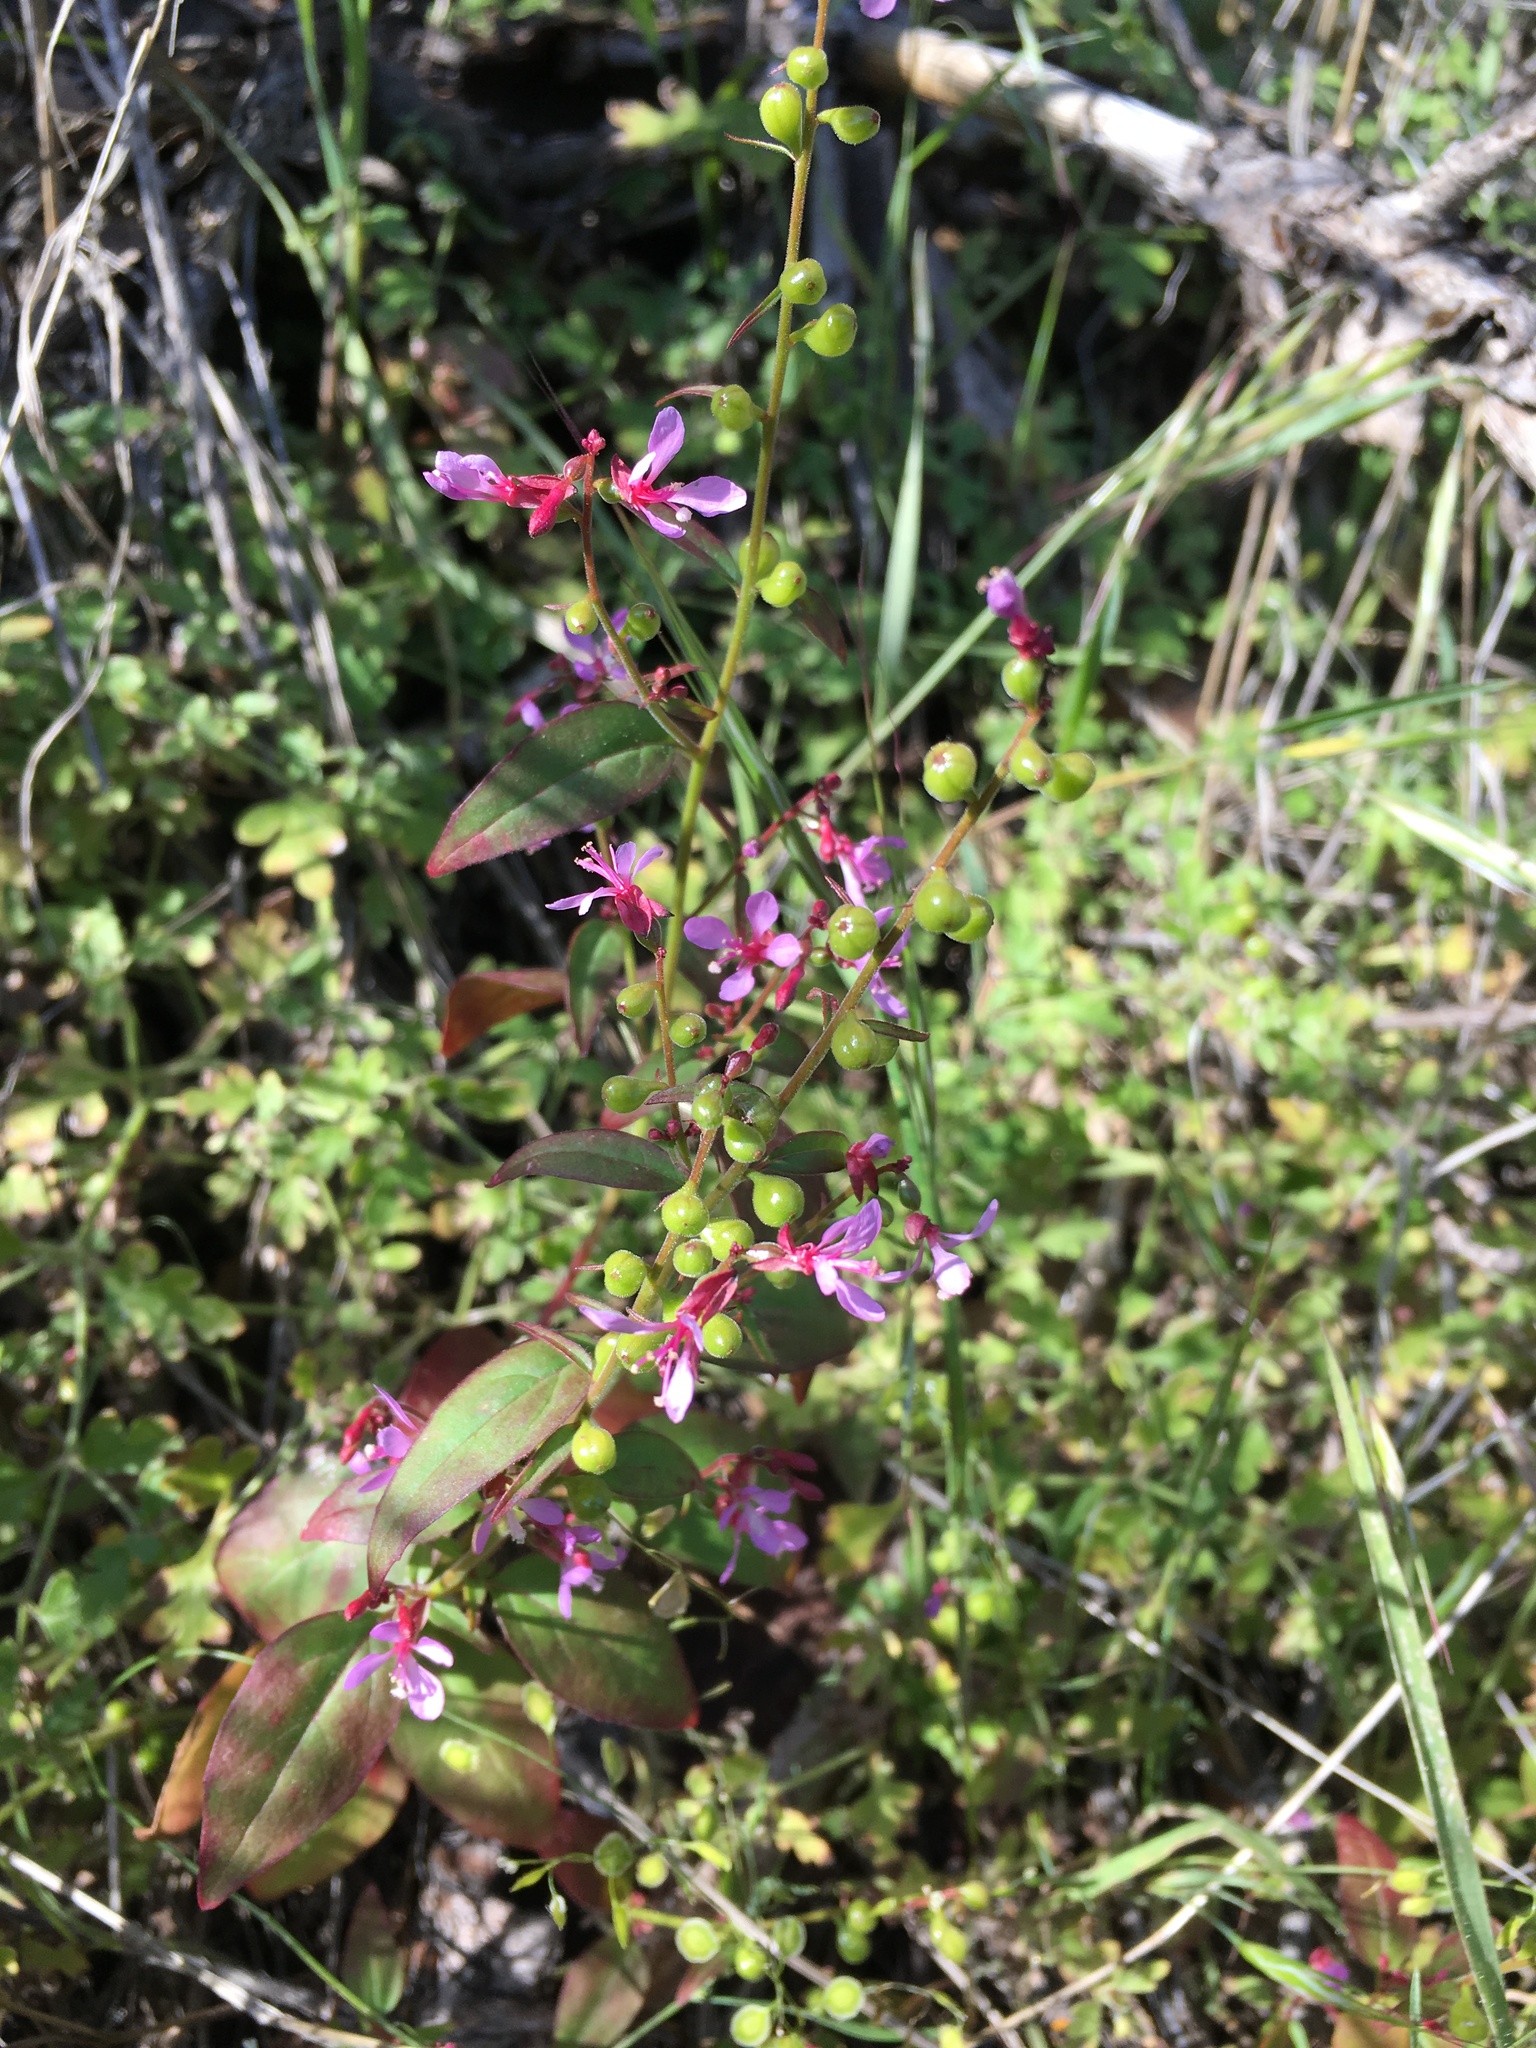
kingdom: Plantae
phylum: Tracheophyta
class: Magnoliopsida
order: Myrtales
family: Onagraceae
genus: Clarkia
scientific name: Clarkia heterandra
